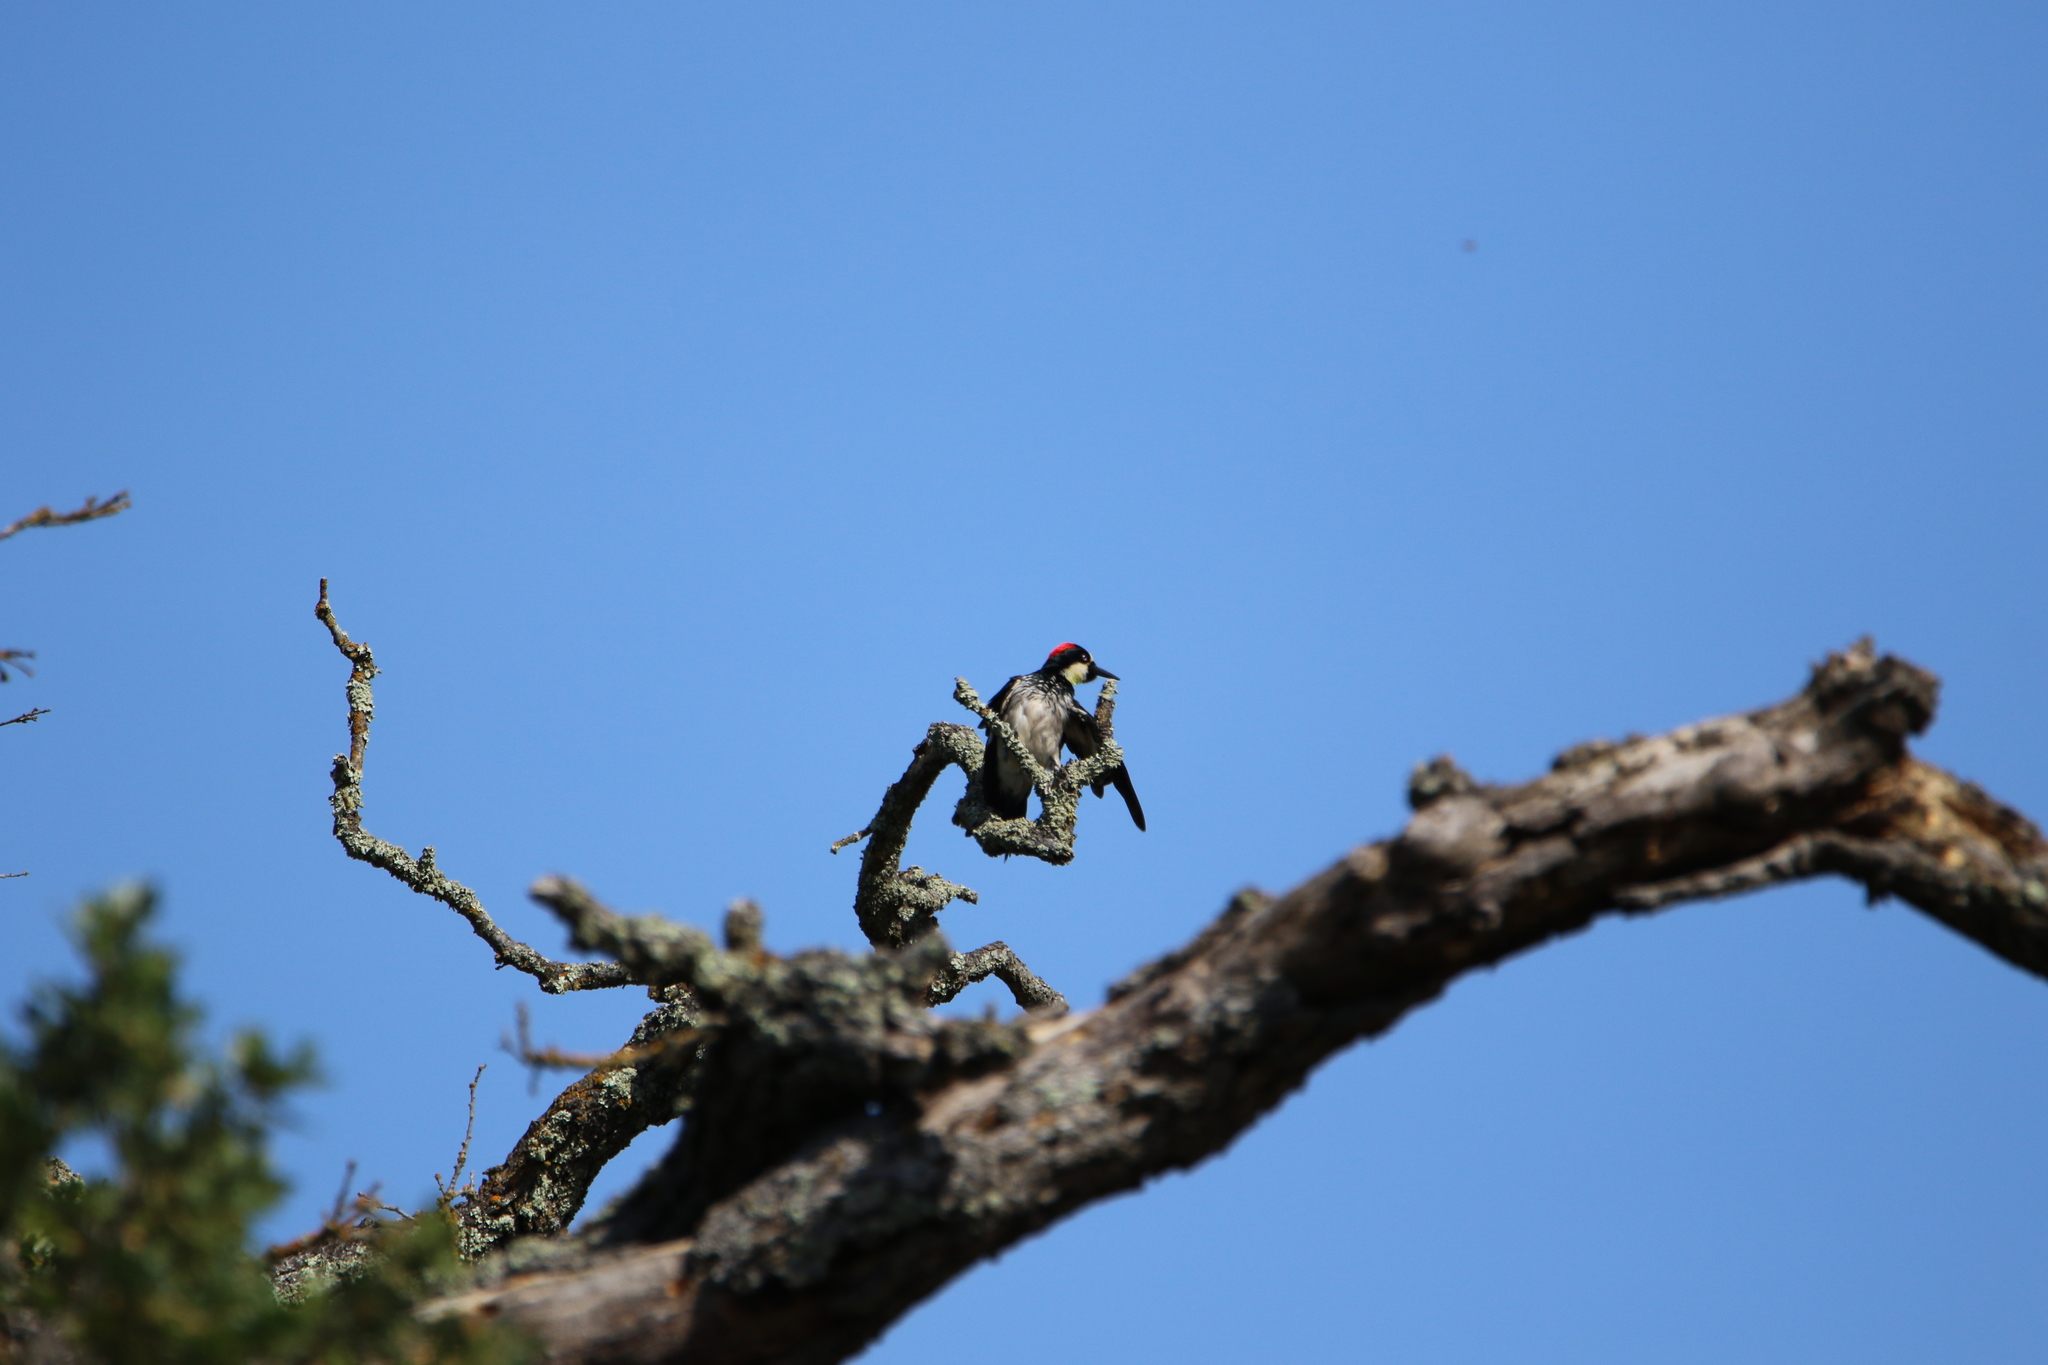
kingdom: Animalia
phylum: Chordata
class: Aves
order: Piciformes
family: Picidae
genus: Melanerpes
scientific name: Melanerpes formicivorus
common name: Acorn woodpecker
